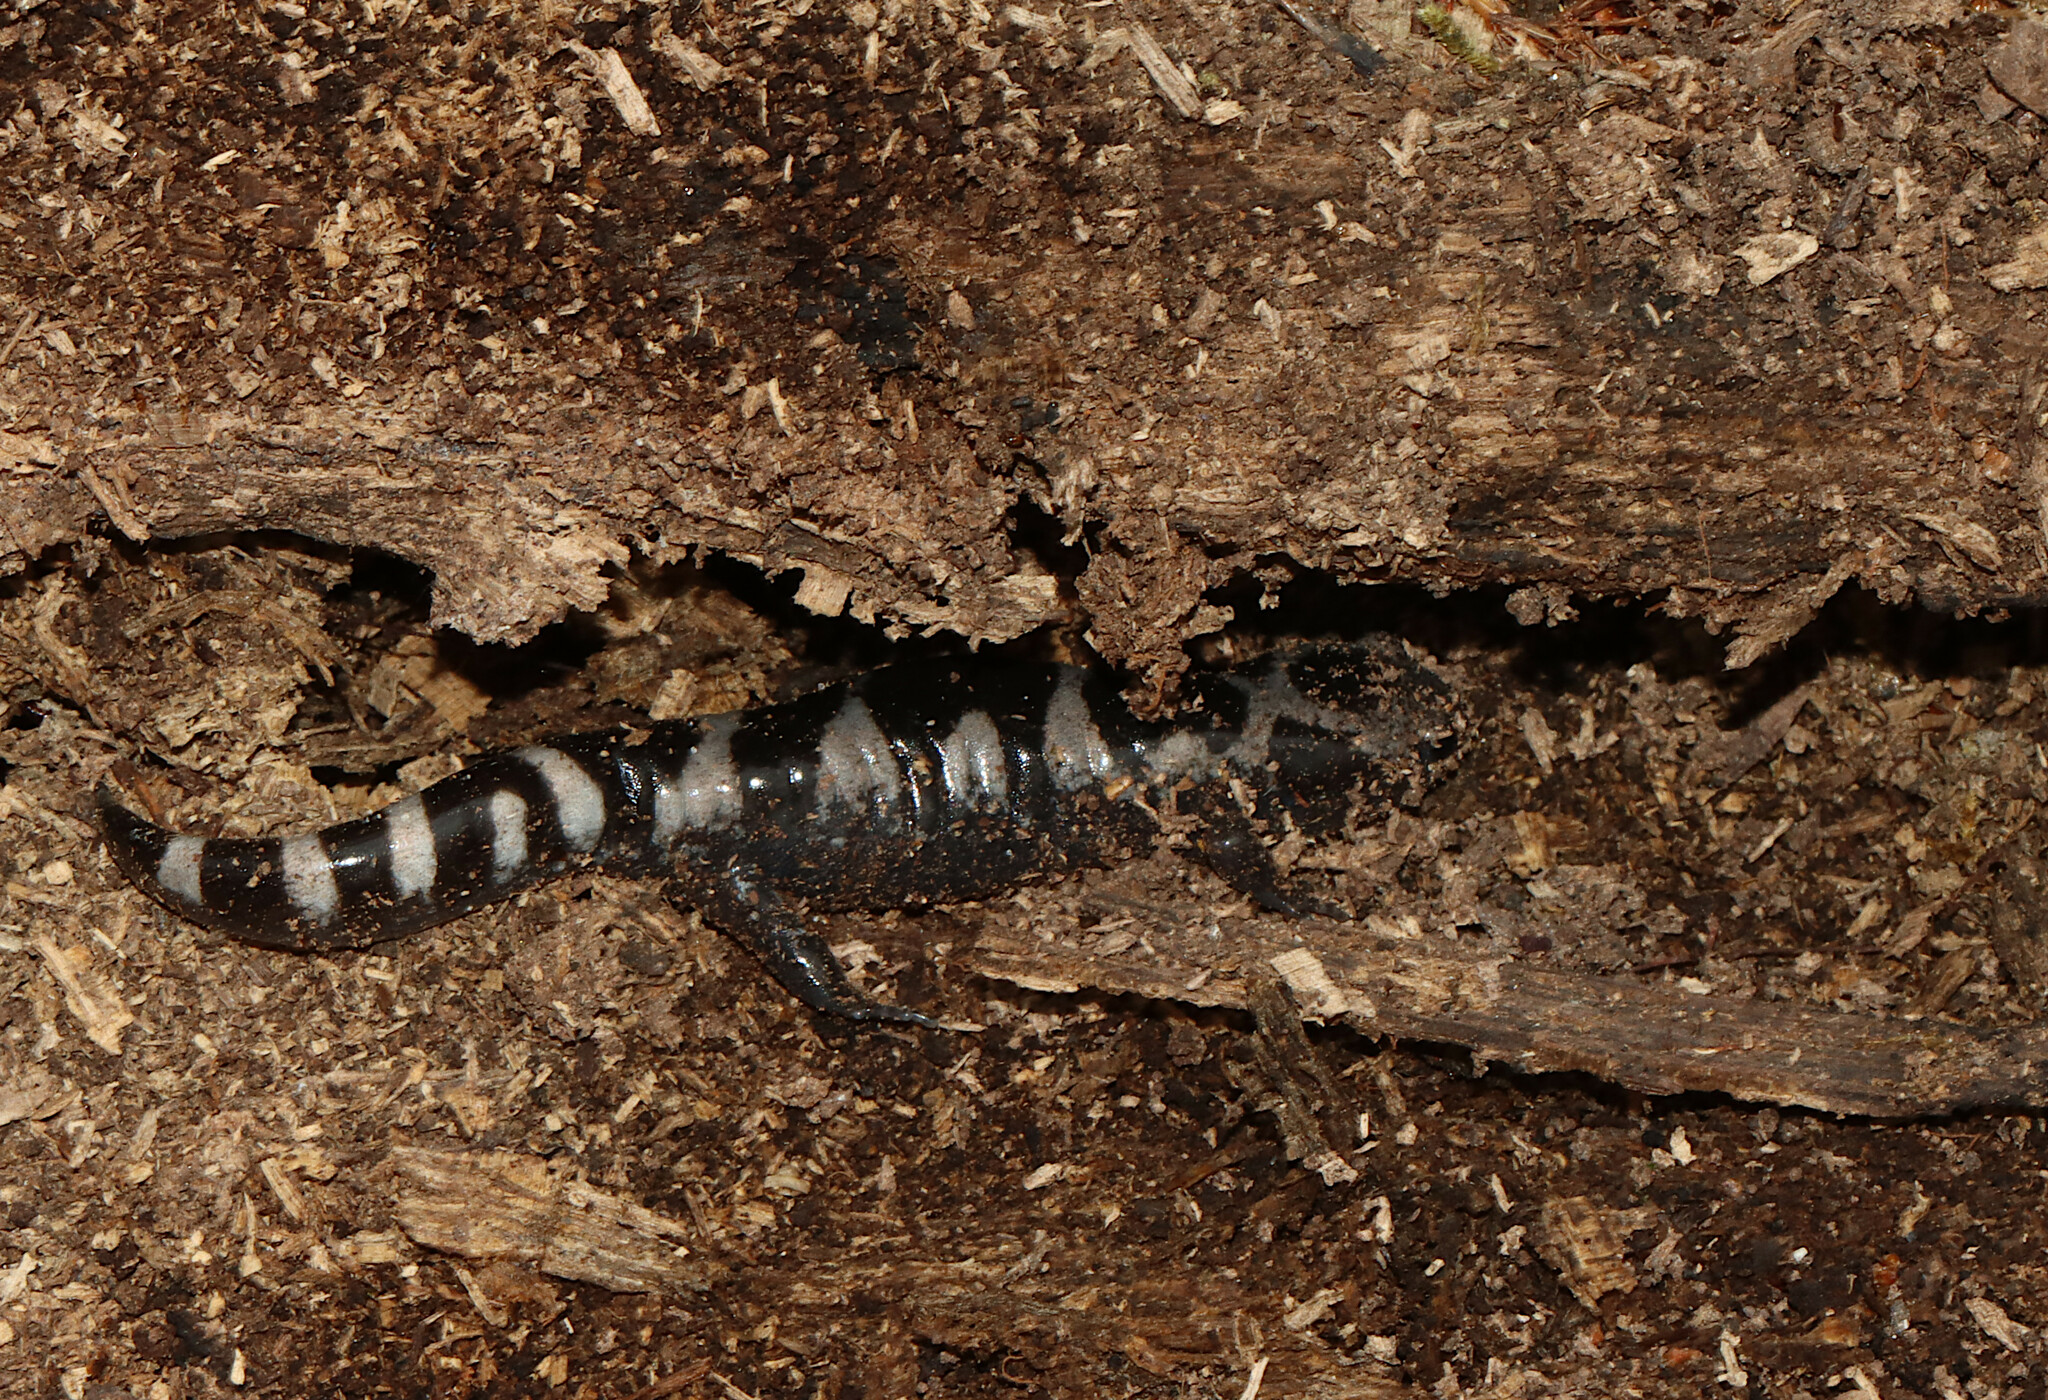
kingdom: Animalia
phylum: Chordata
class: Amphibia
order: Caudata
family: Ambystomatidae
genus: Ambystoma
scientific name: Ambystoma opacum
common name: Marbled salamander
